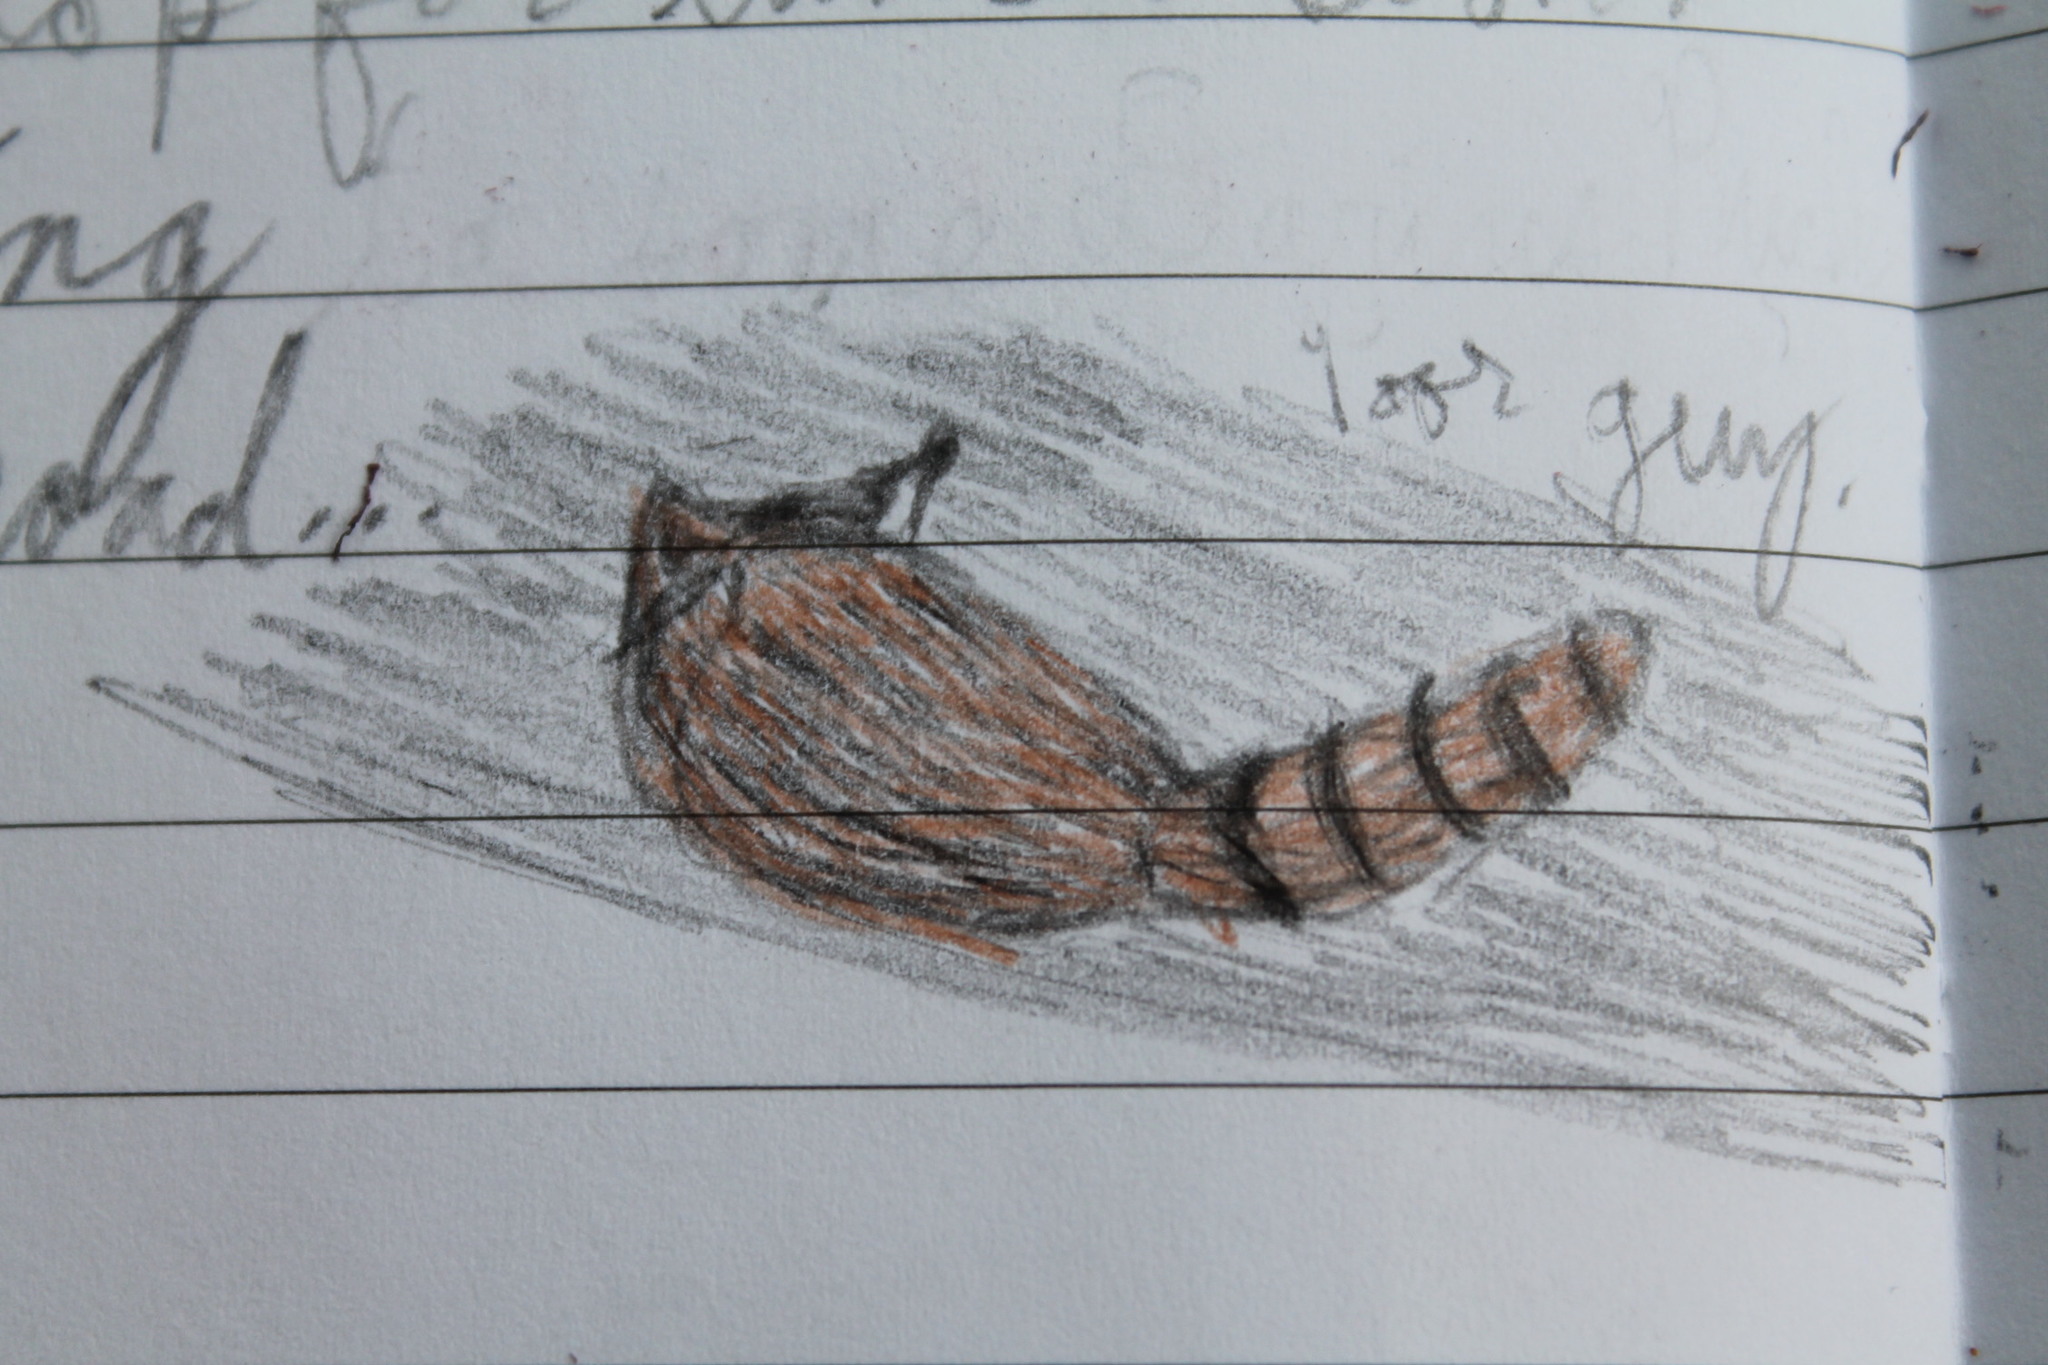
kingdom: Animalia
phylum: Chordata
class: Mammalia
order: Carnivora
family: Procyonidae
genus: Procyon
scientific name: Procyon lotor
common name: Raccoon
